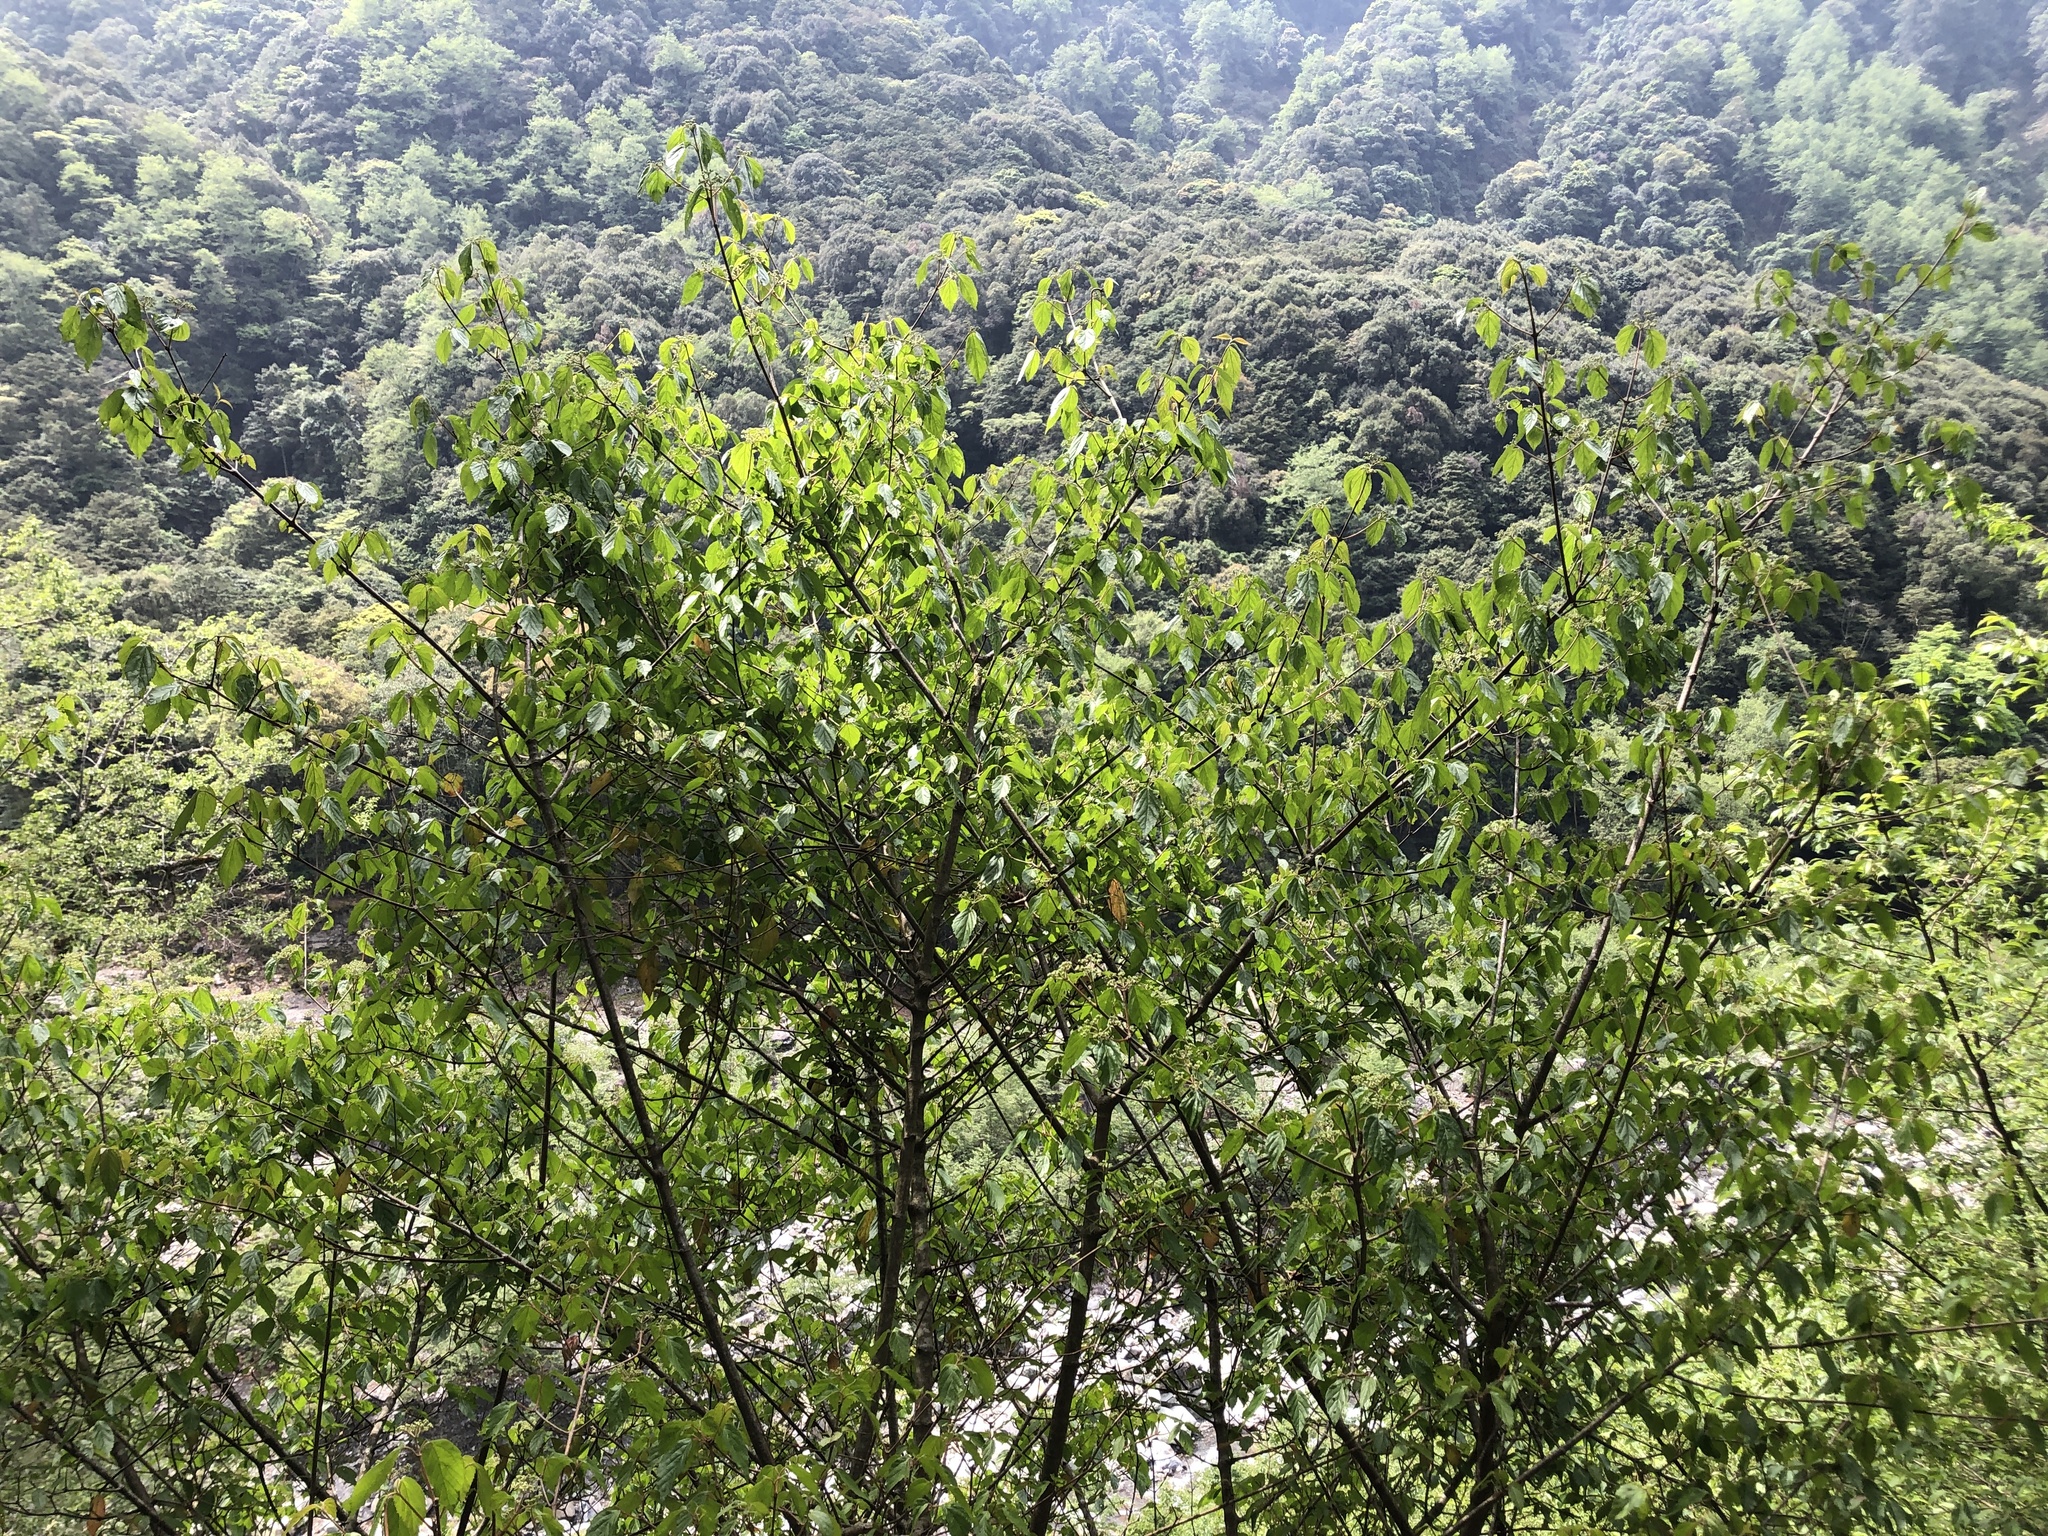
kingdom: Plantae
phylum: Tracheophyta
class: Magnoliopsida
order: Dipsacales
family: Viburnaceae
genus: Viburnum
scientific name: Viburnum luzonicum
